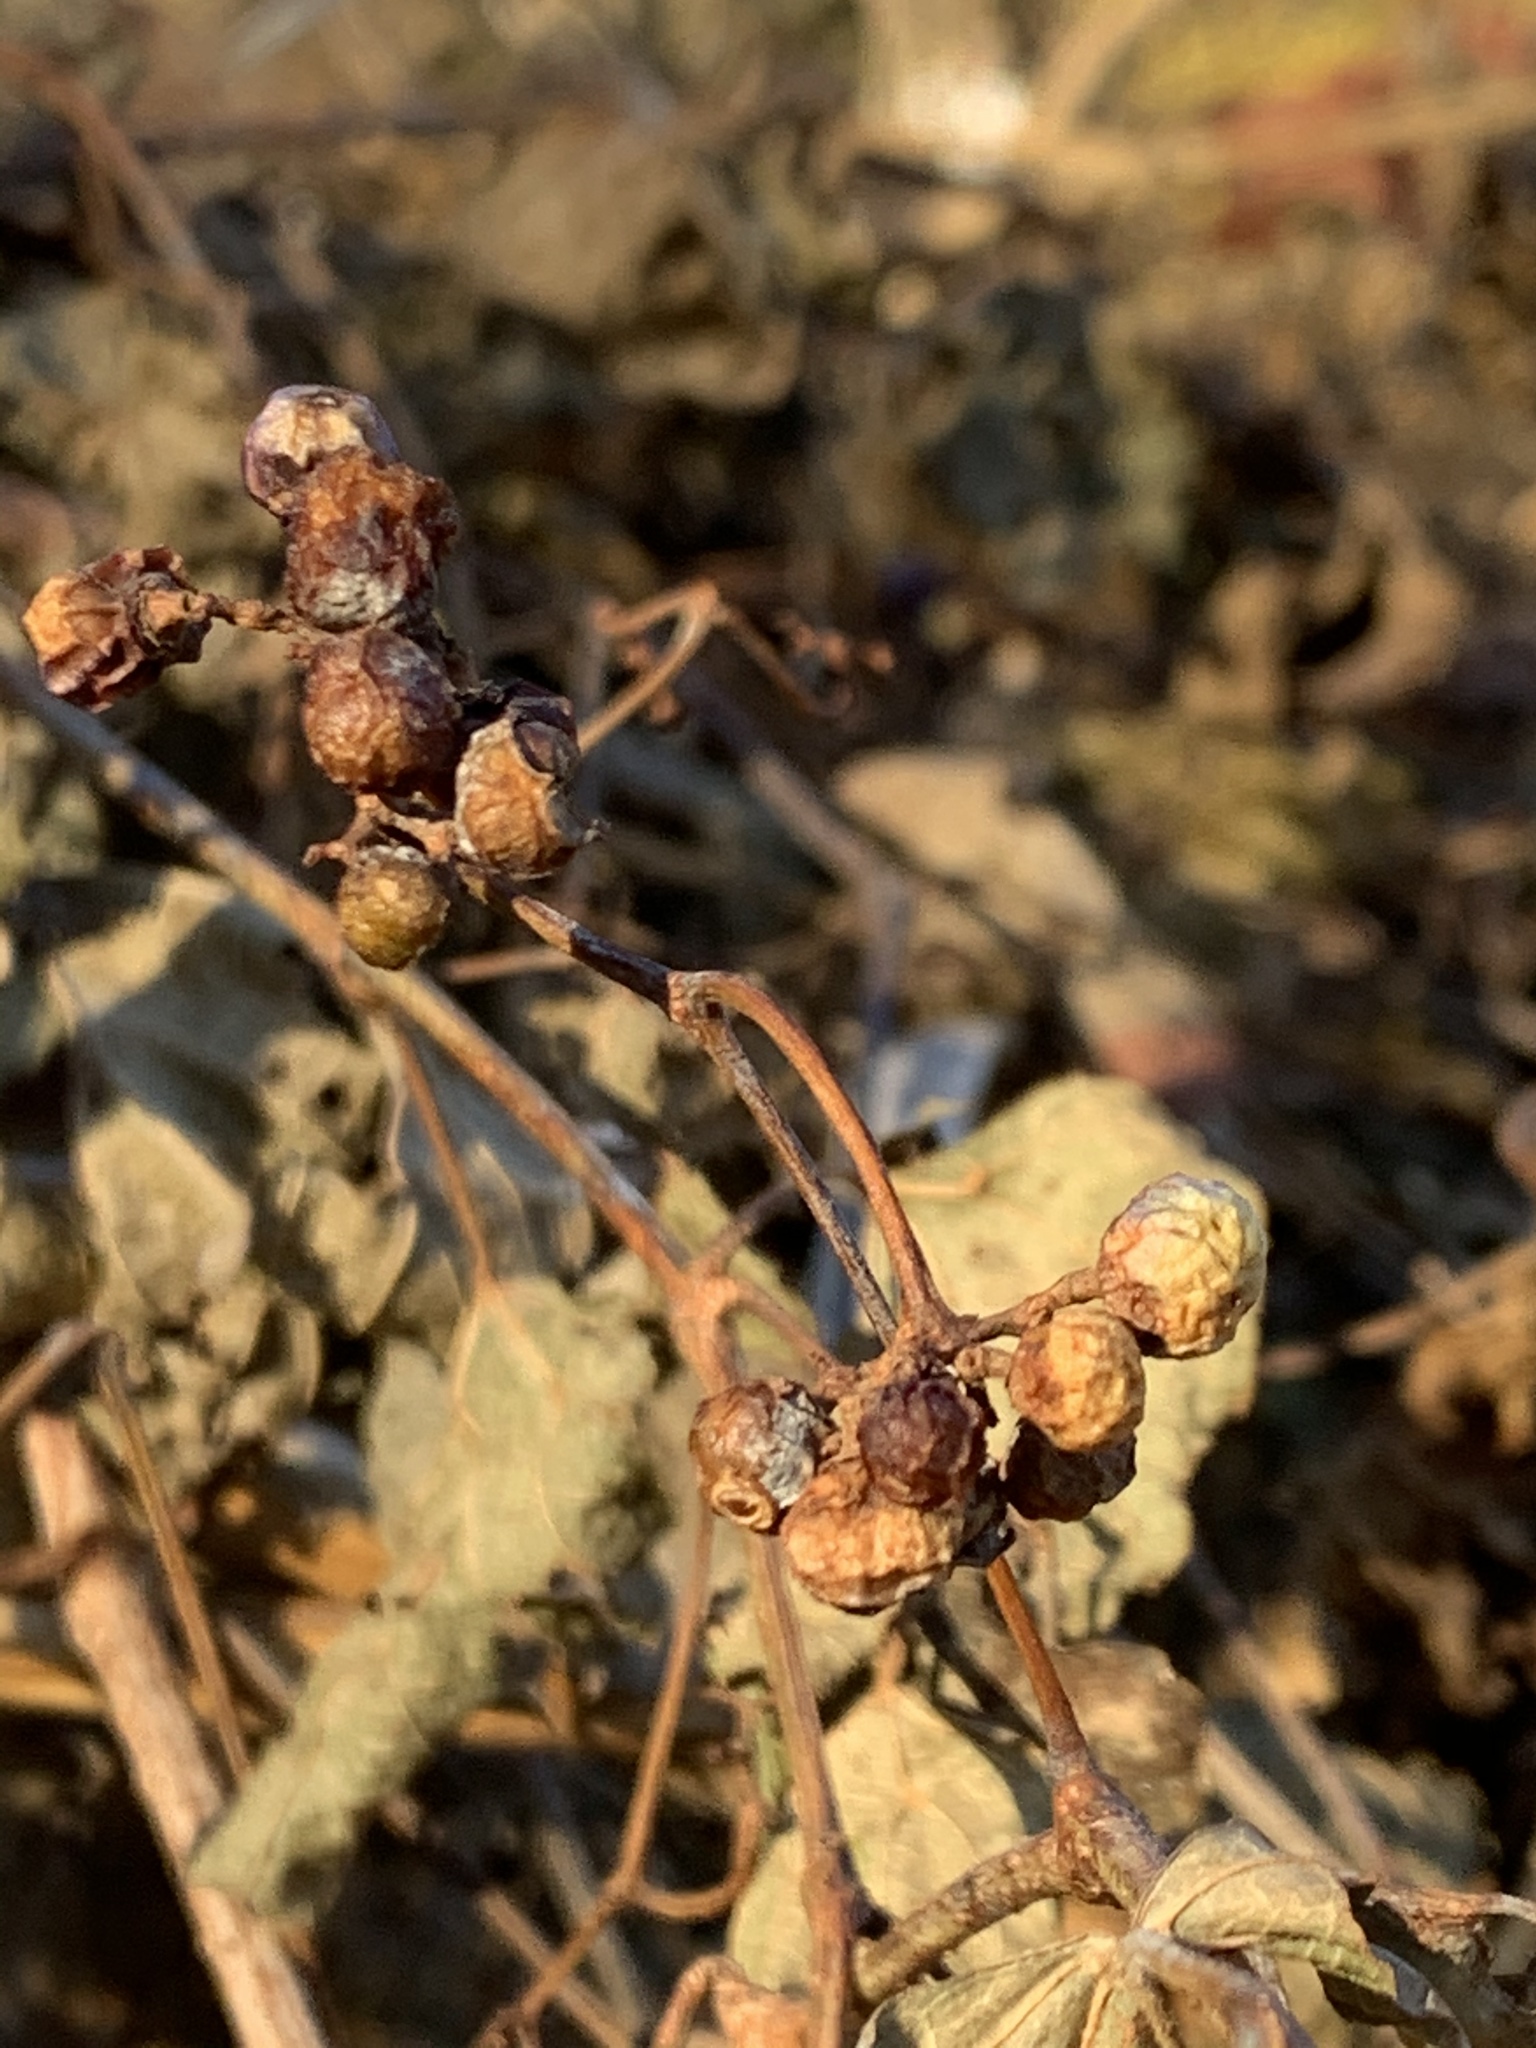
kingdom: Plantae
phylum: Tracheophyta
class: Magnoliopsida
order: Vitales
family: Vitaceae
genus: Ampelopsis
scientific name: Ampelopsis glandulosa
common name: Amur peppervine
